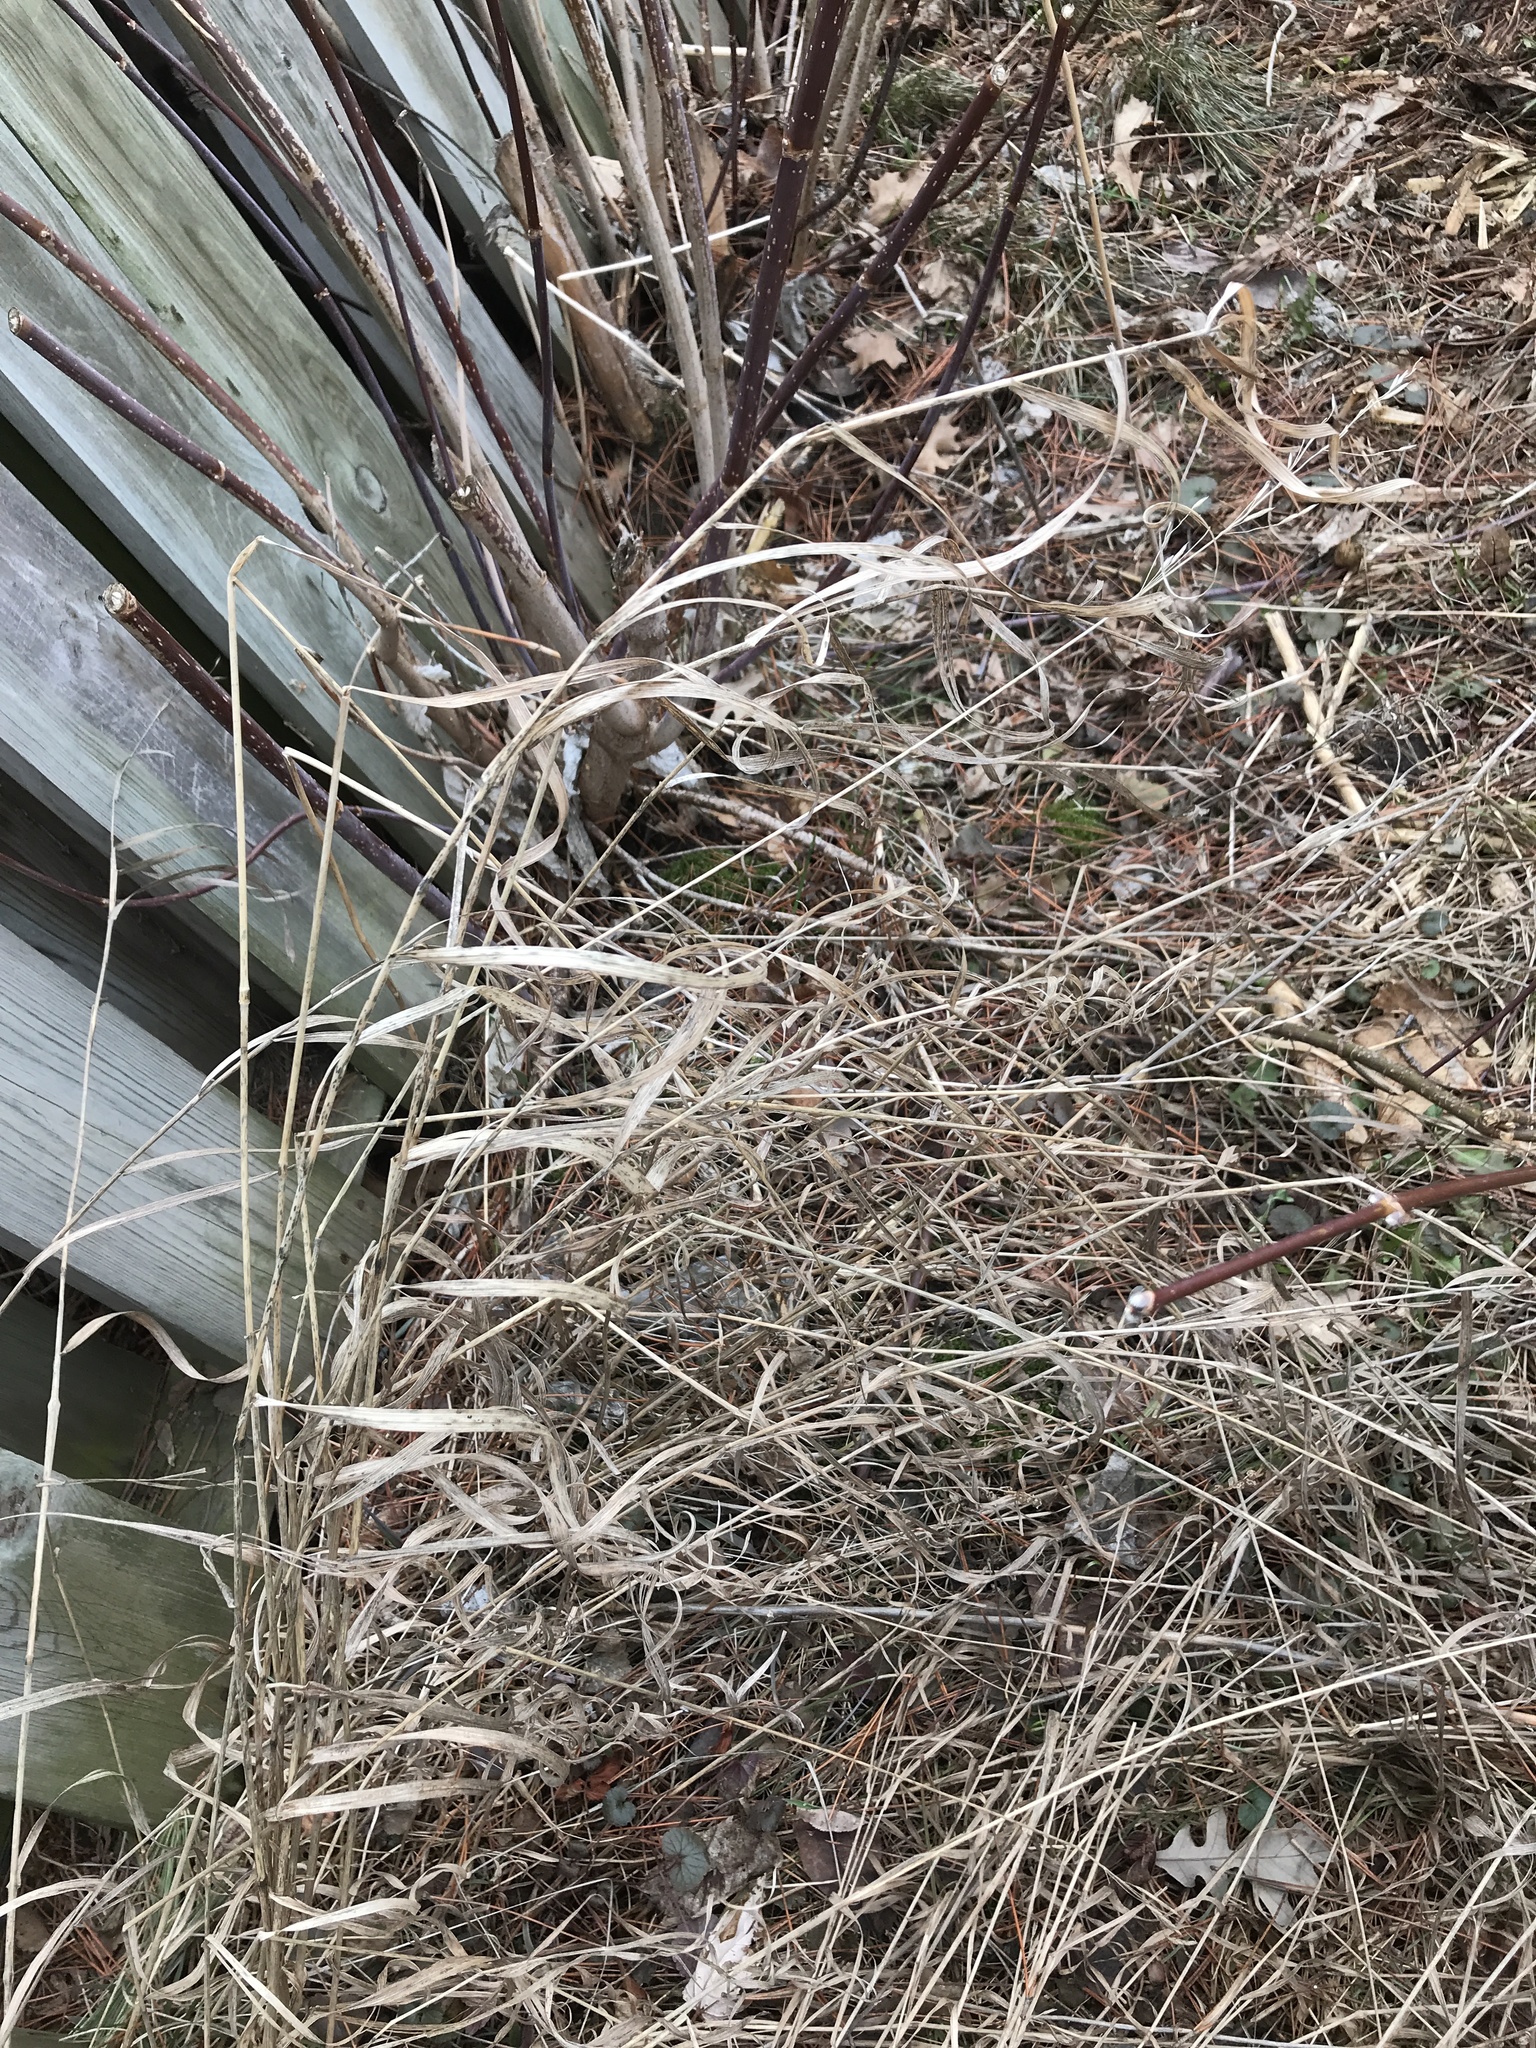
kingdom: Plantae
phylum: Tracheophyta
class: Liliopsida
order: Poales
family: Poaceae
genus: Bromus
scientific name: Bromus inermis
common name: Smooth brome
